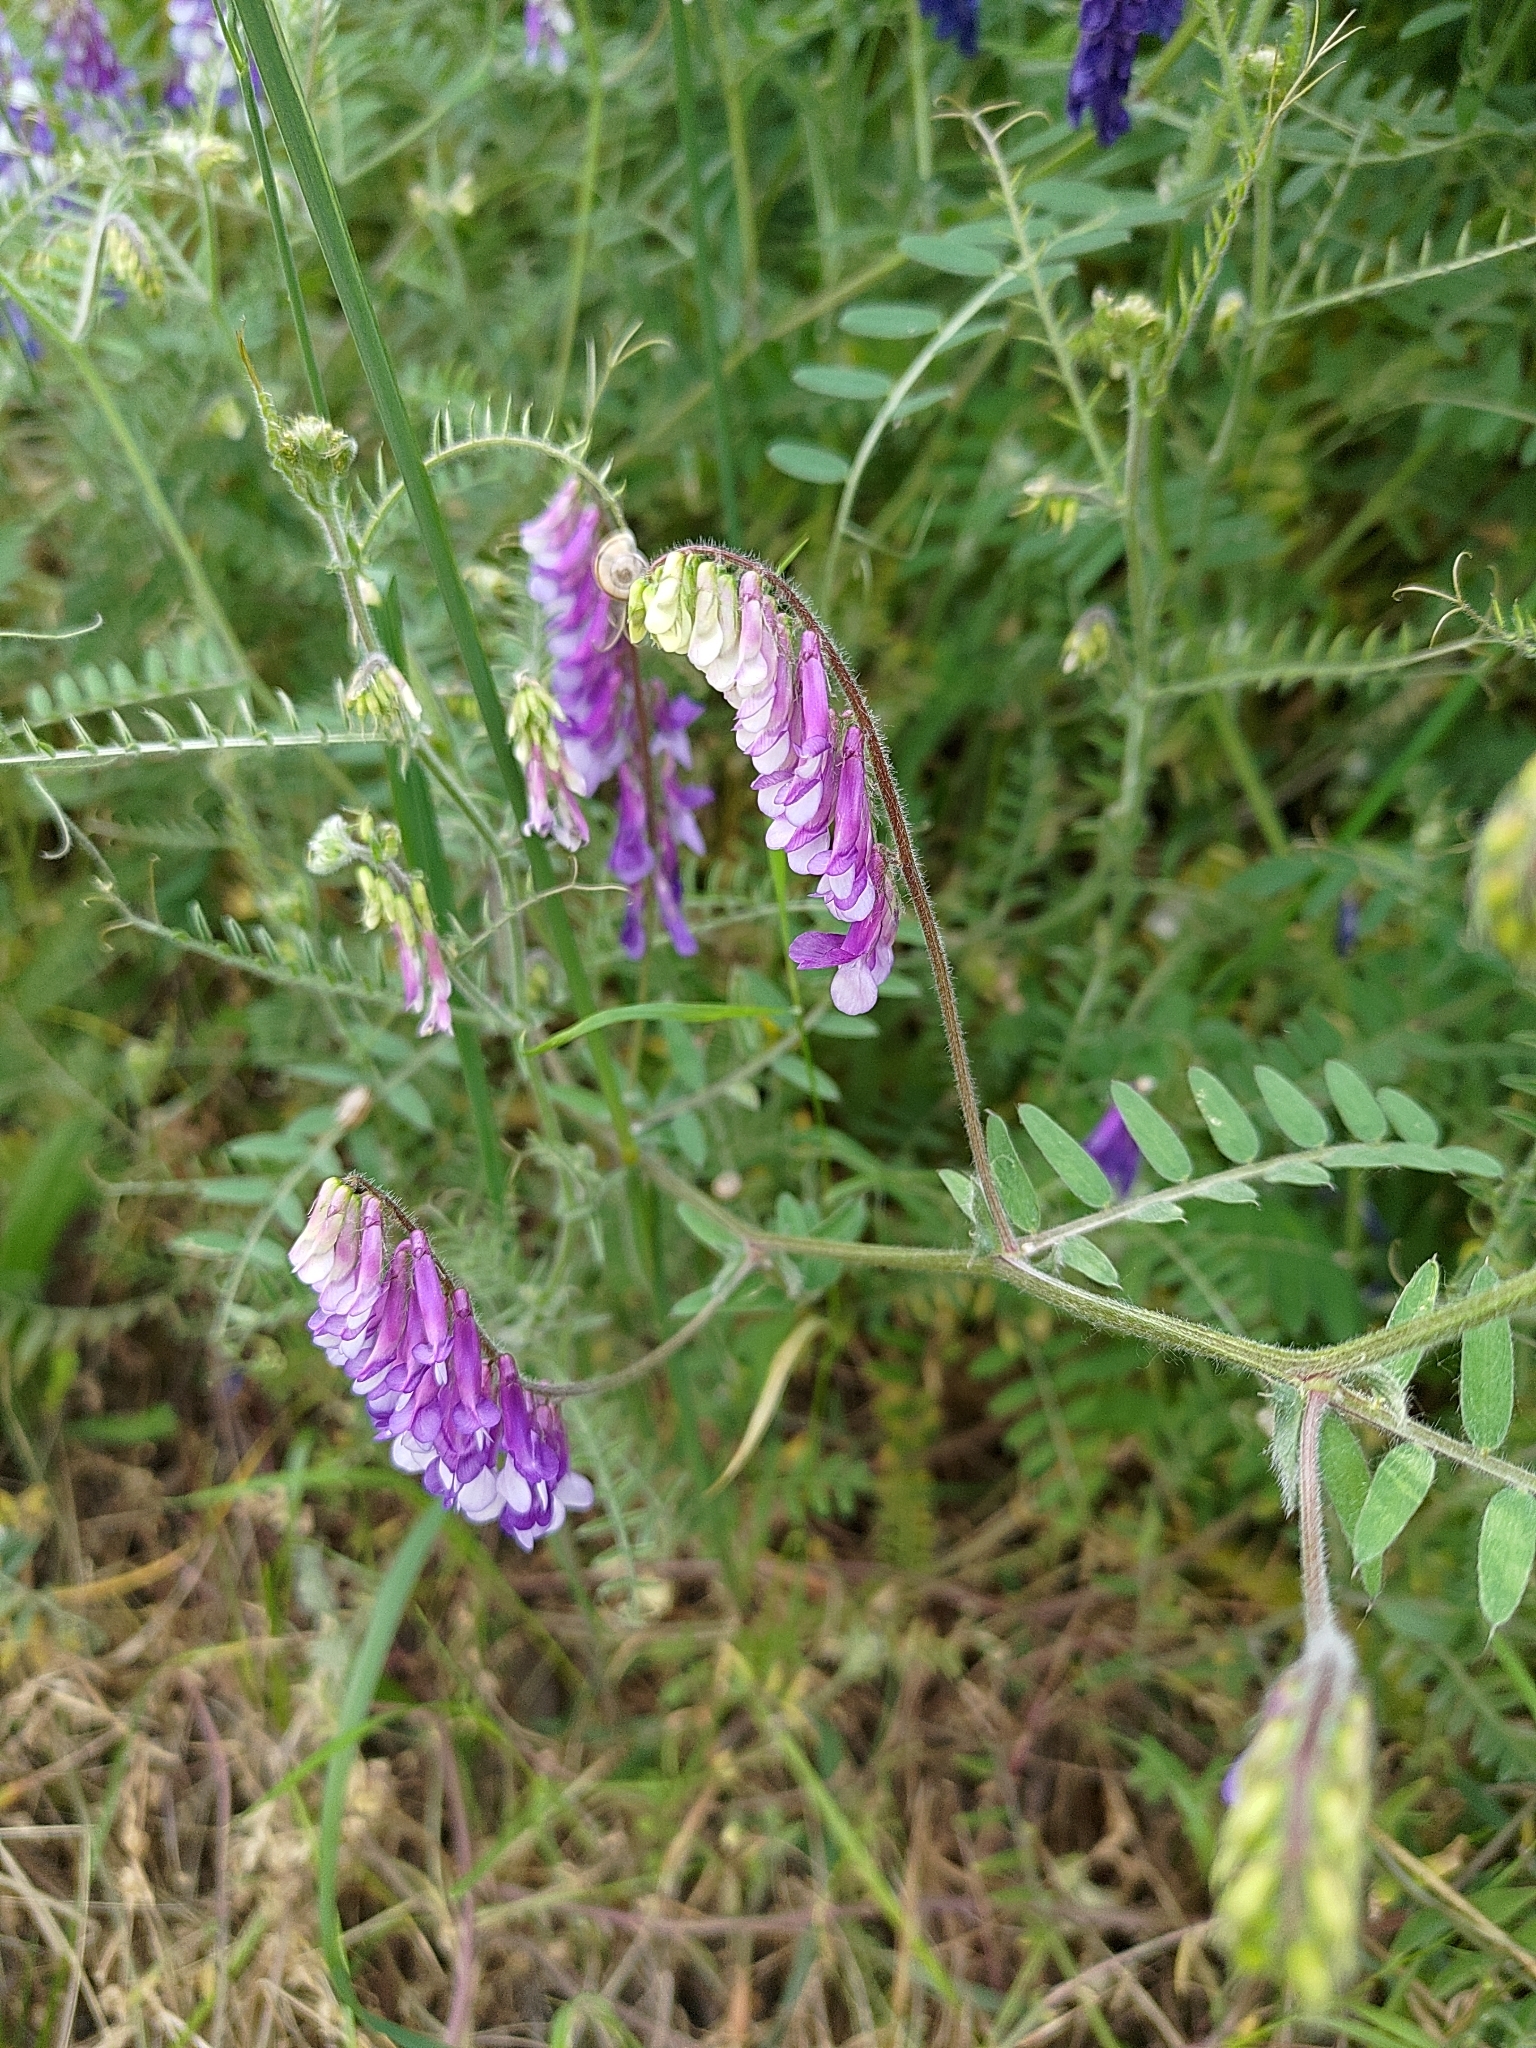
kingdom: Plantae
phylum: Tracheophyta
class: Magnoliopsida
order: Fabales
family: Fabaceae
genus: Vicia
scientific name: Vicia villosa
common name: Fodder vetch
